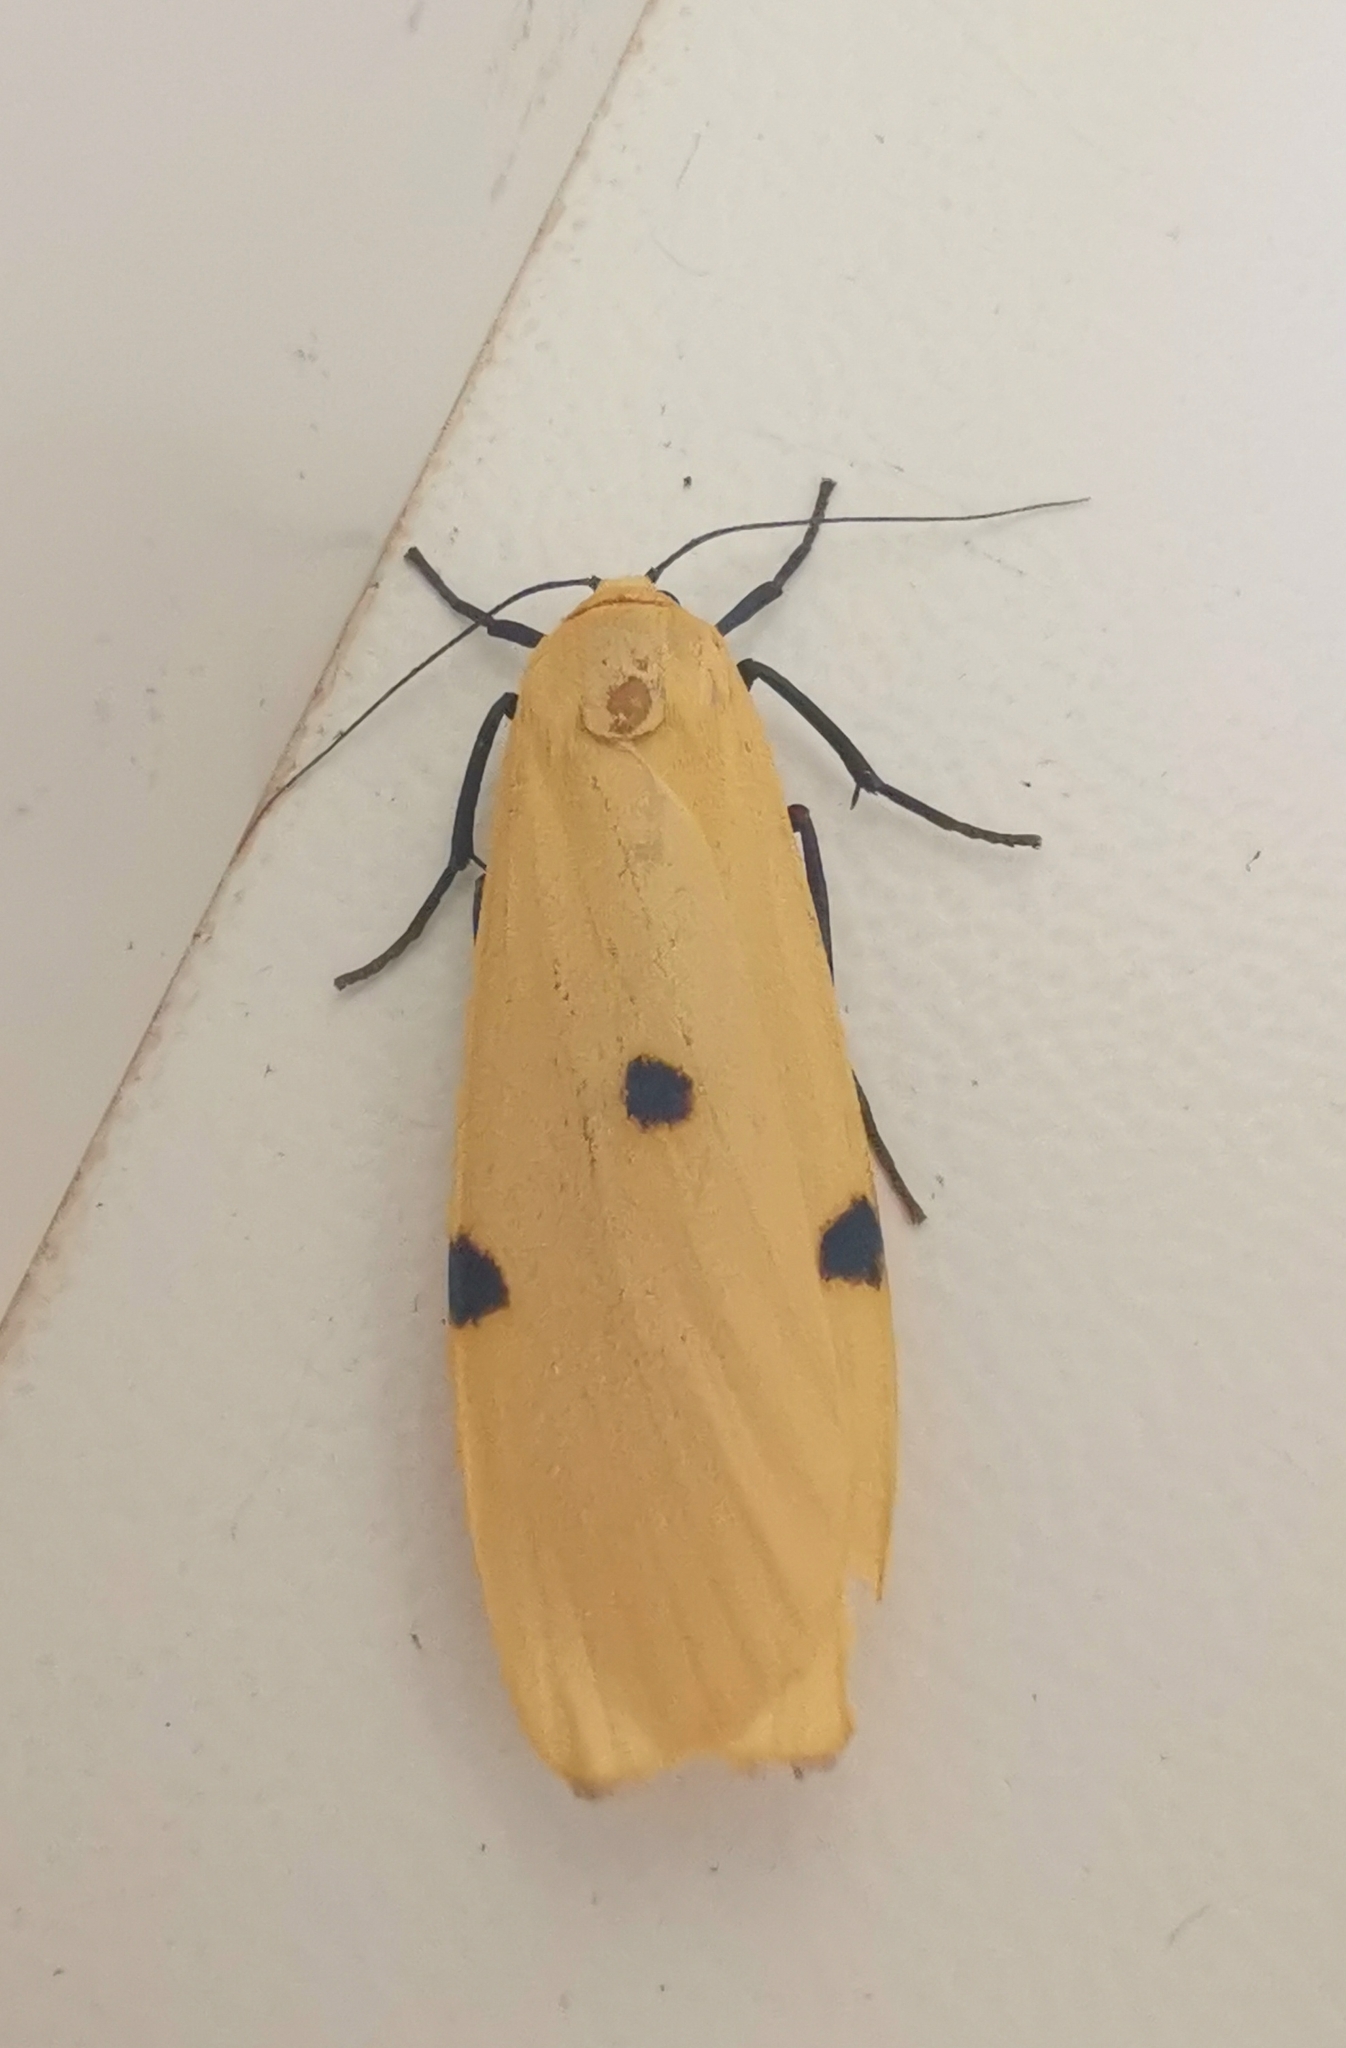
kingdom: Animalia
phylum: Arthropoda
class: Insecta
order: Lepidoptera
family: Erebidae
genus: Lithosia
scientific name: Lithosia quadra
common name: Four-spotted footman
